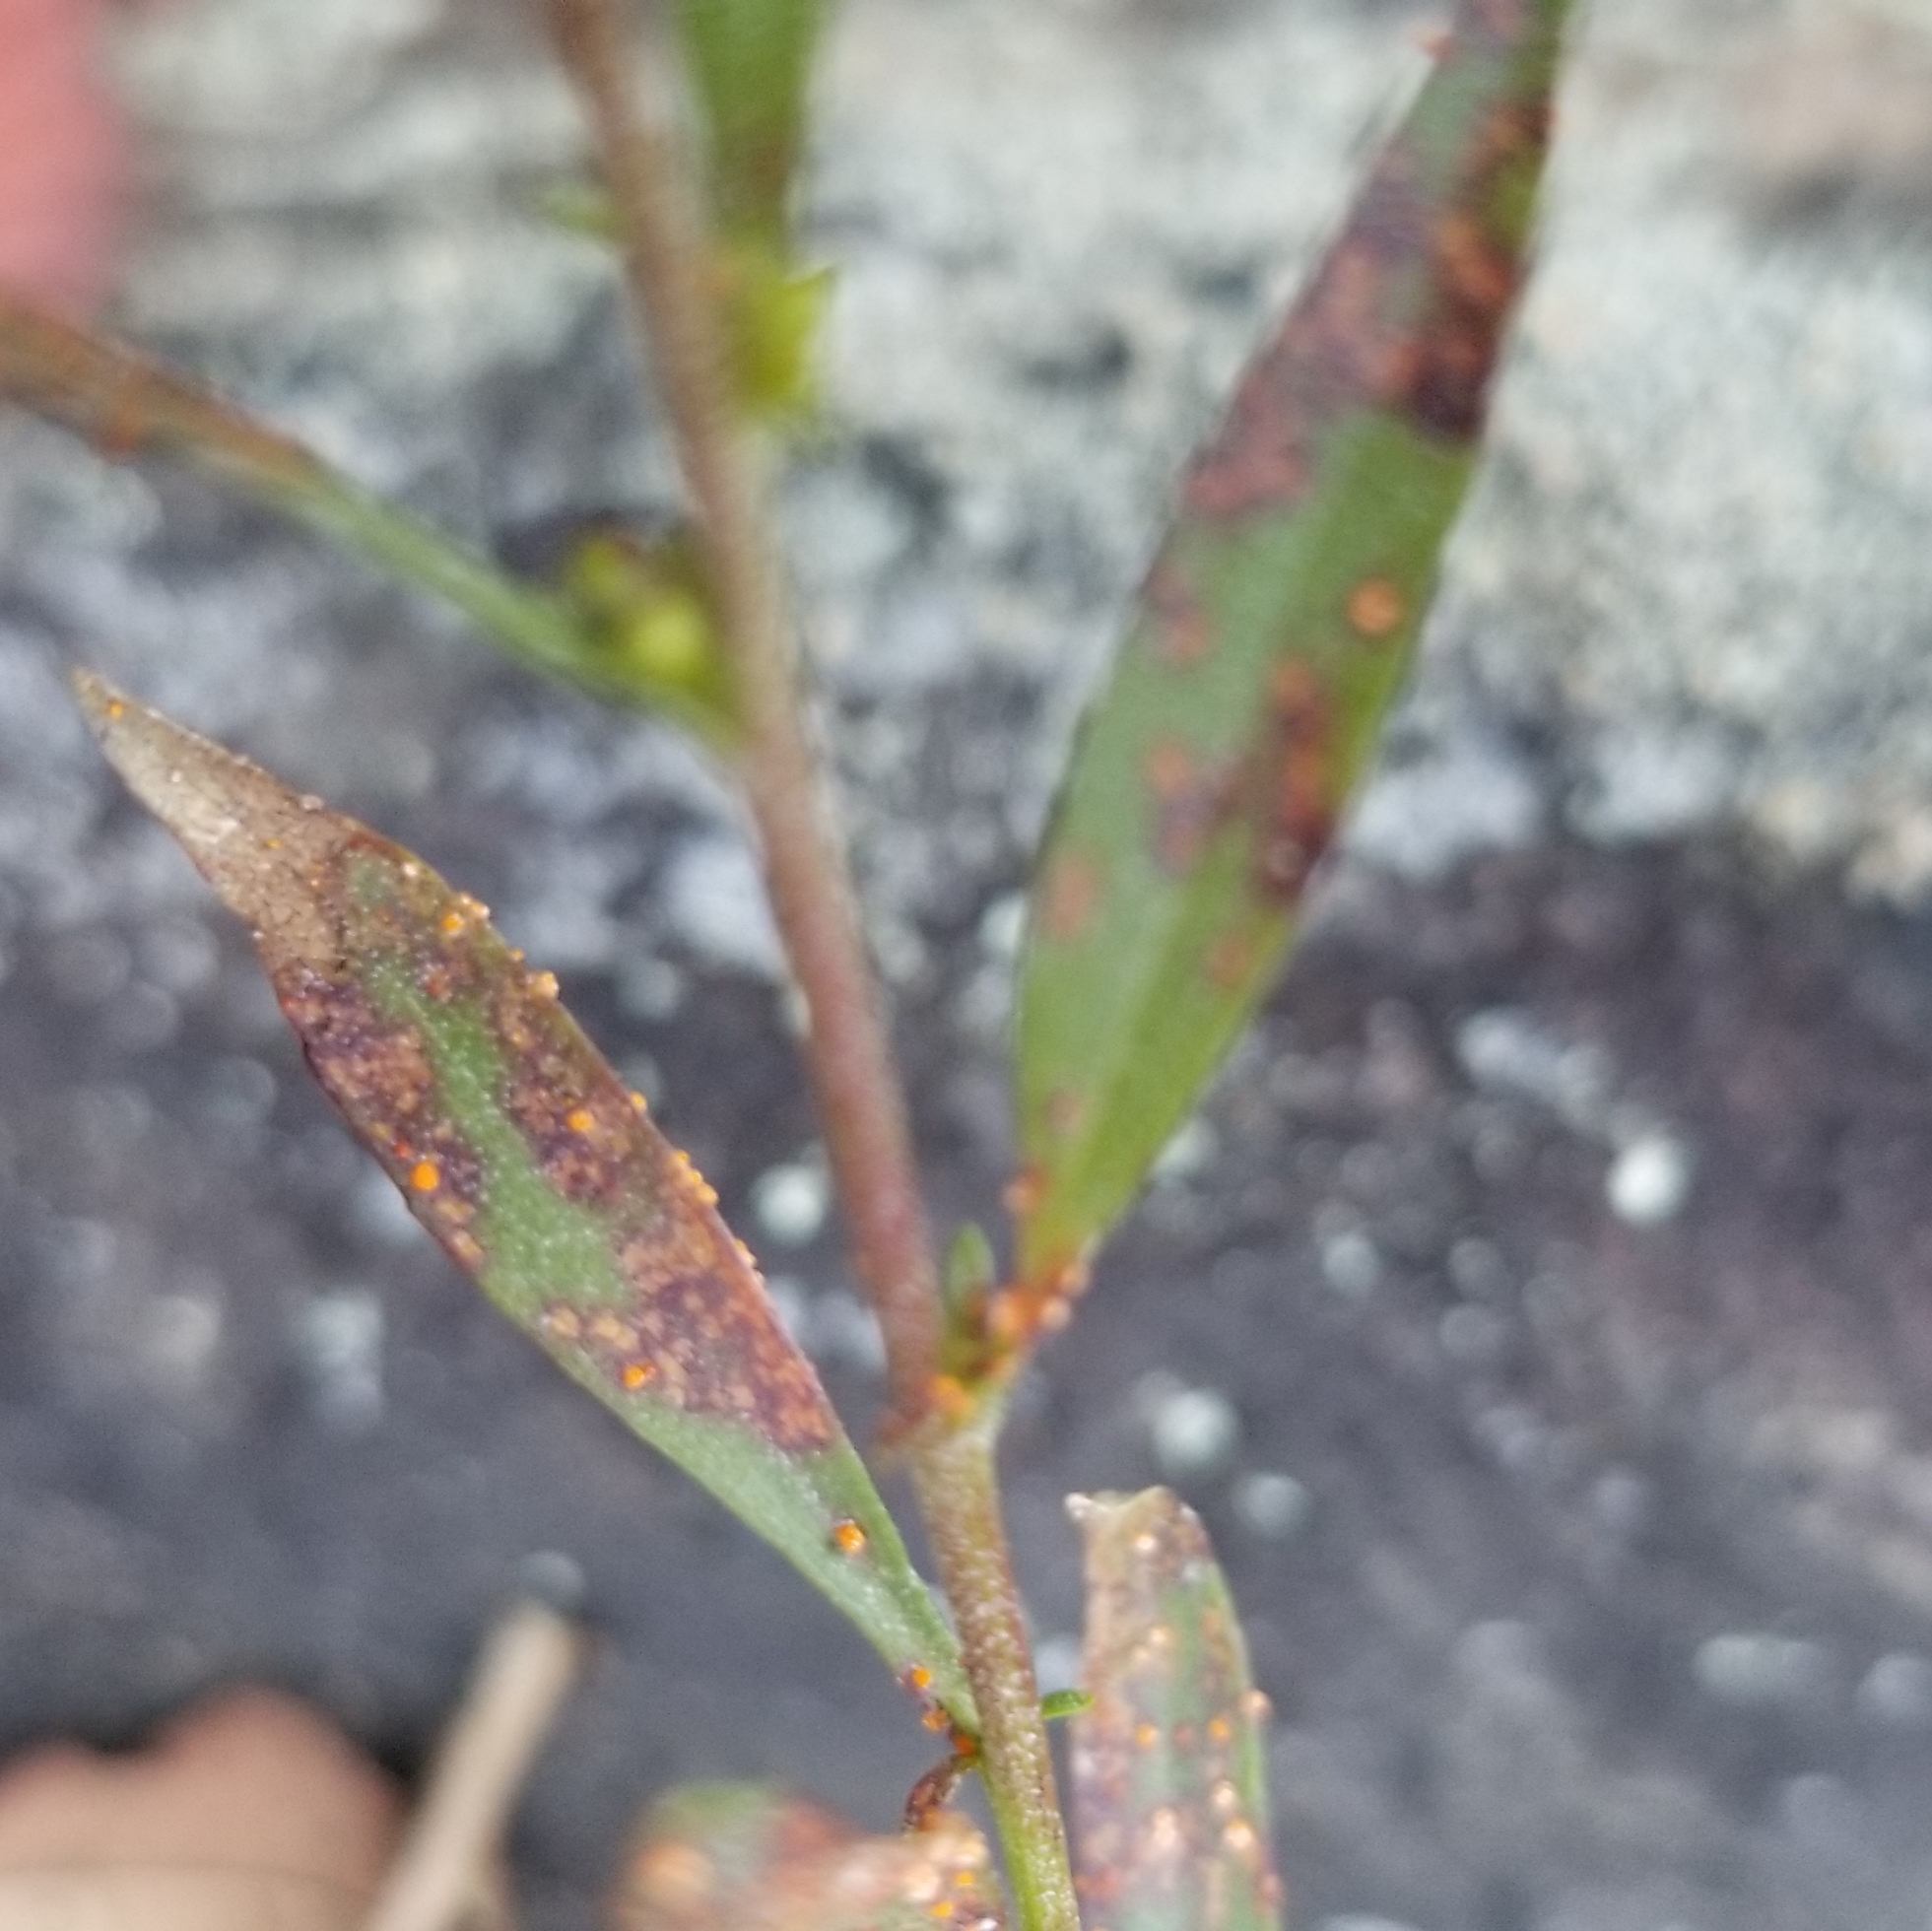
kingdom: Fungi
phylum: Basidiomycota
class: Pucciniomycetes
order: Pucciniales
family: Coleosporiaceae
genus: Coleosporium
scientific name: Coleosporium asterum
